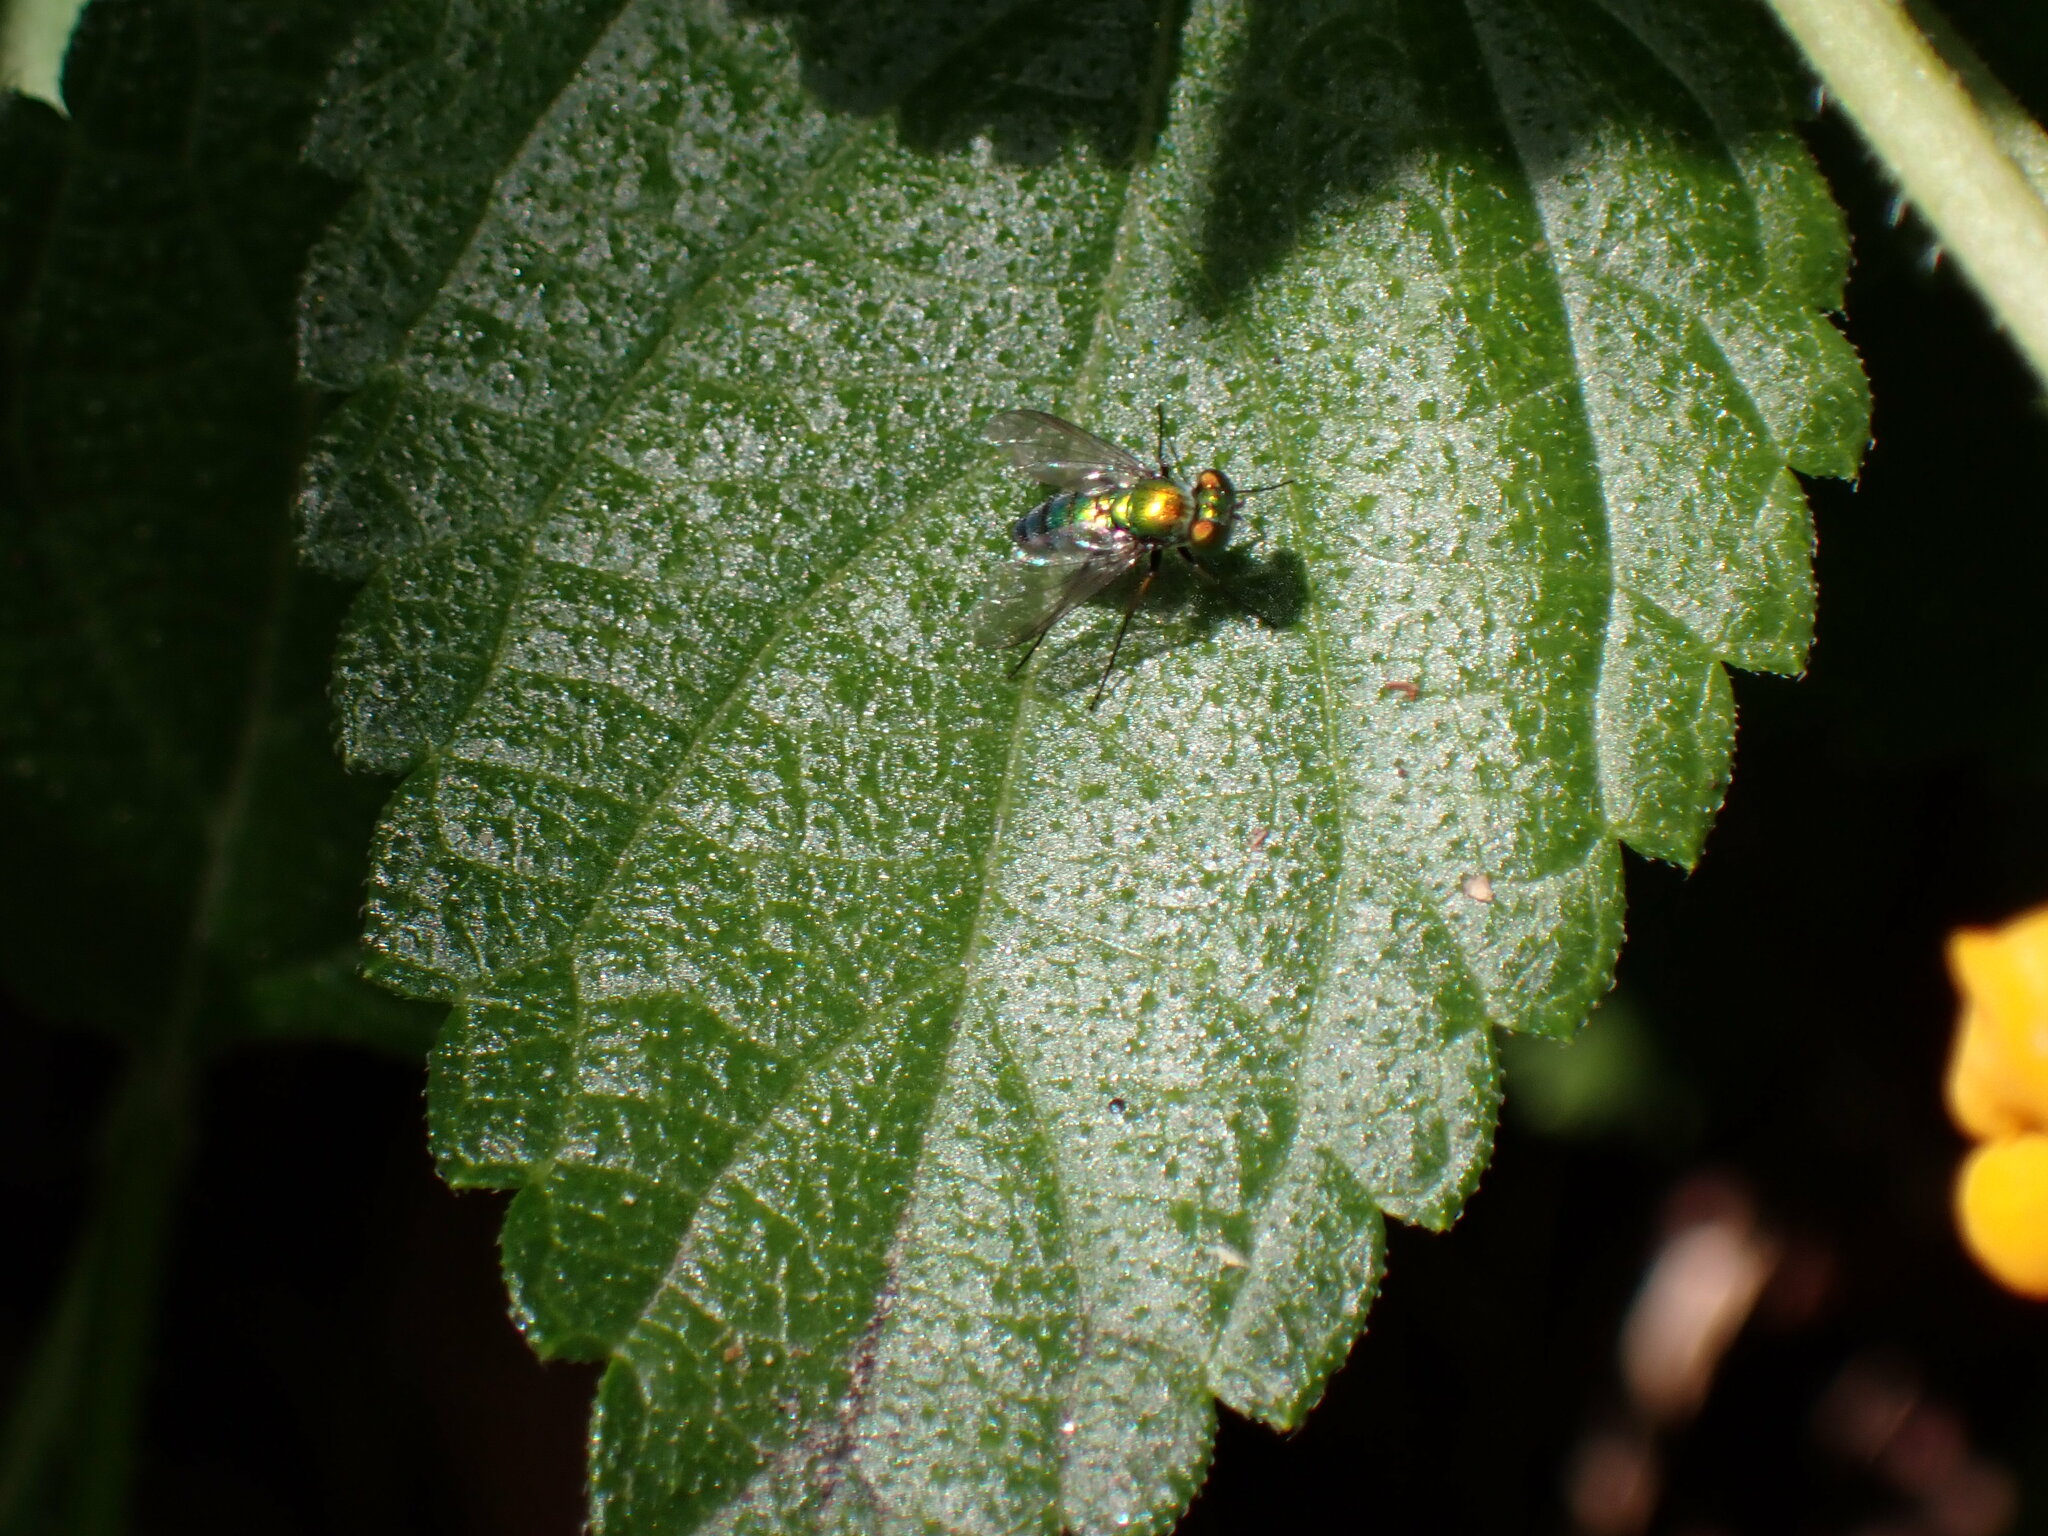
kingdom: Animalia
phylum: Arthropoda
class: Insecta
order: Diptera
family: Dolichopodidae
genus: Condylostylus
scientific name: Condylostylus longicornis
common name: Long-legged fly
